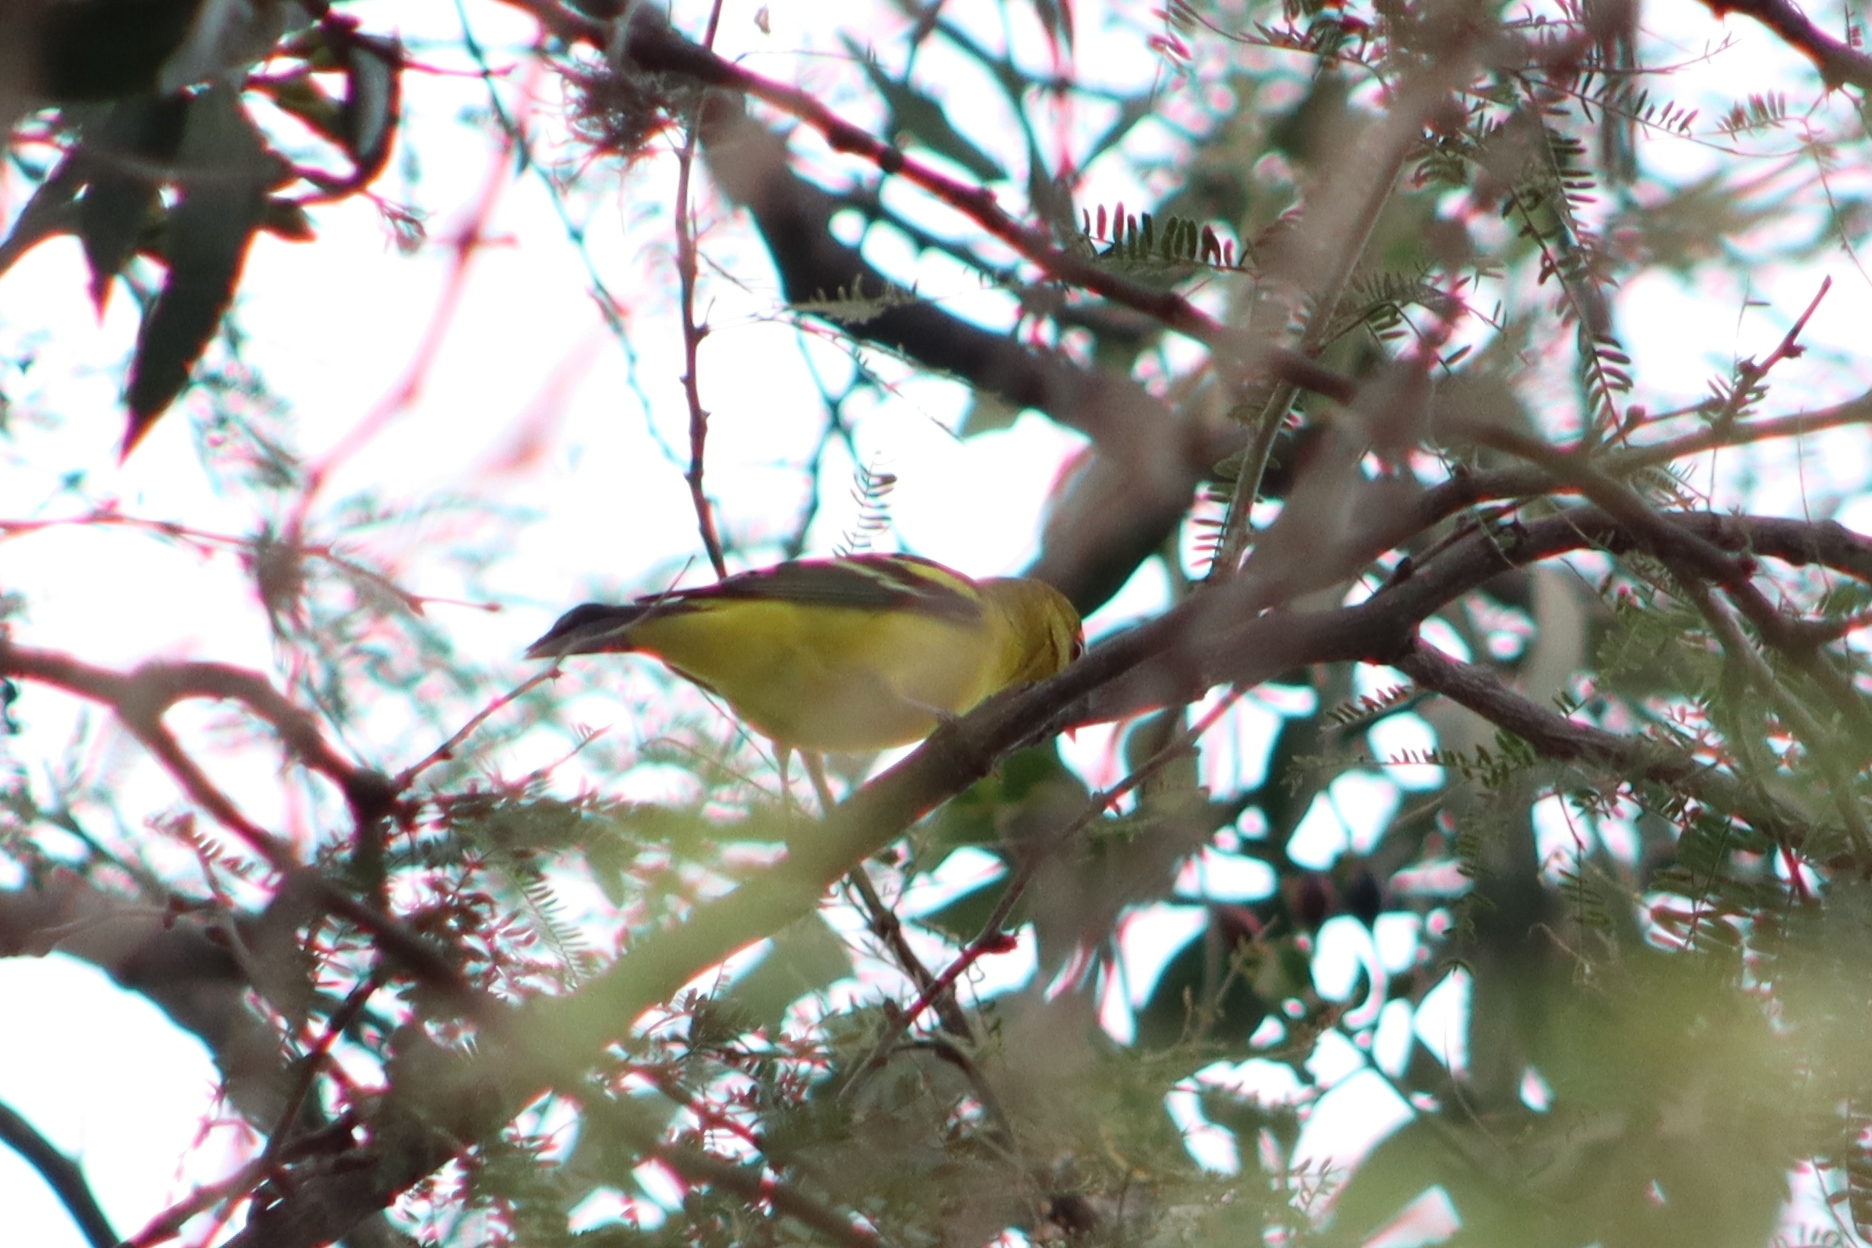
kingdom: Animalia
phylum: Chordata
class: Aves
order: Passeriformes
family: Cardinalidae
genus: Piranga
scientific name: Piranga ludoviciana
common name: Western tanager
